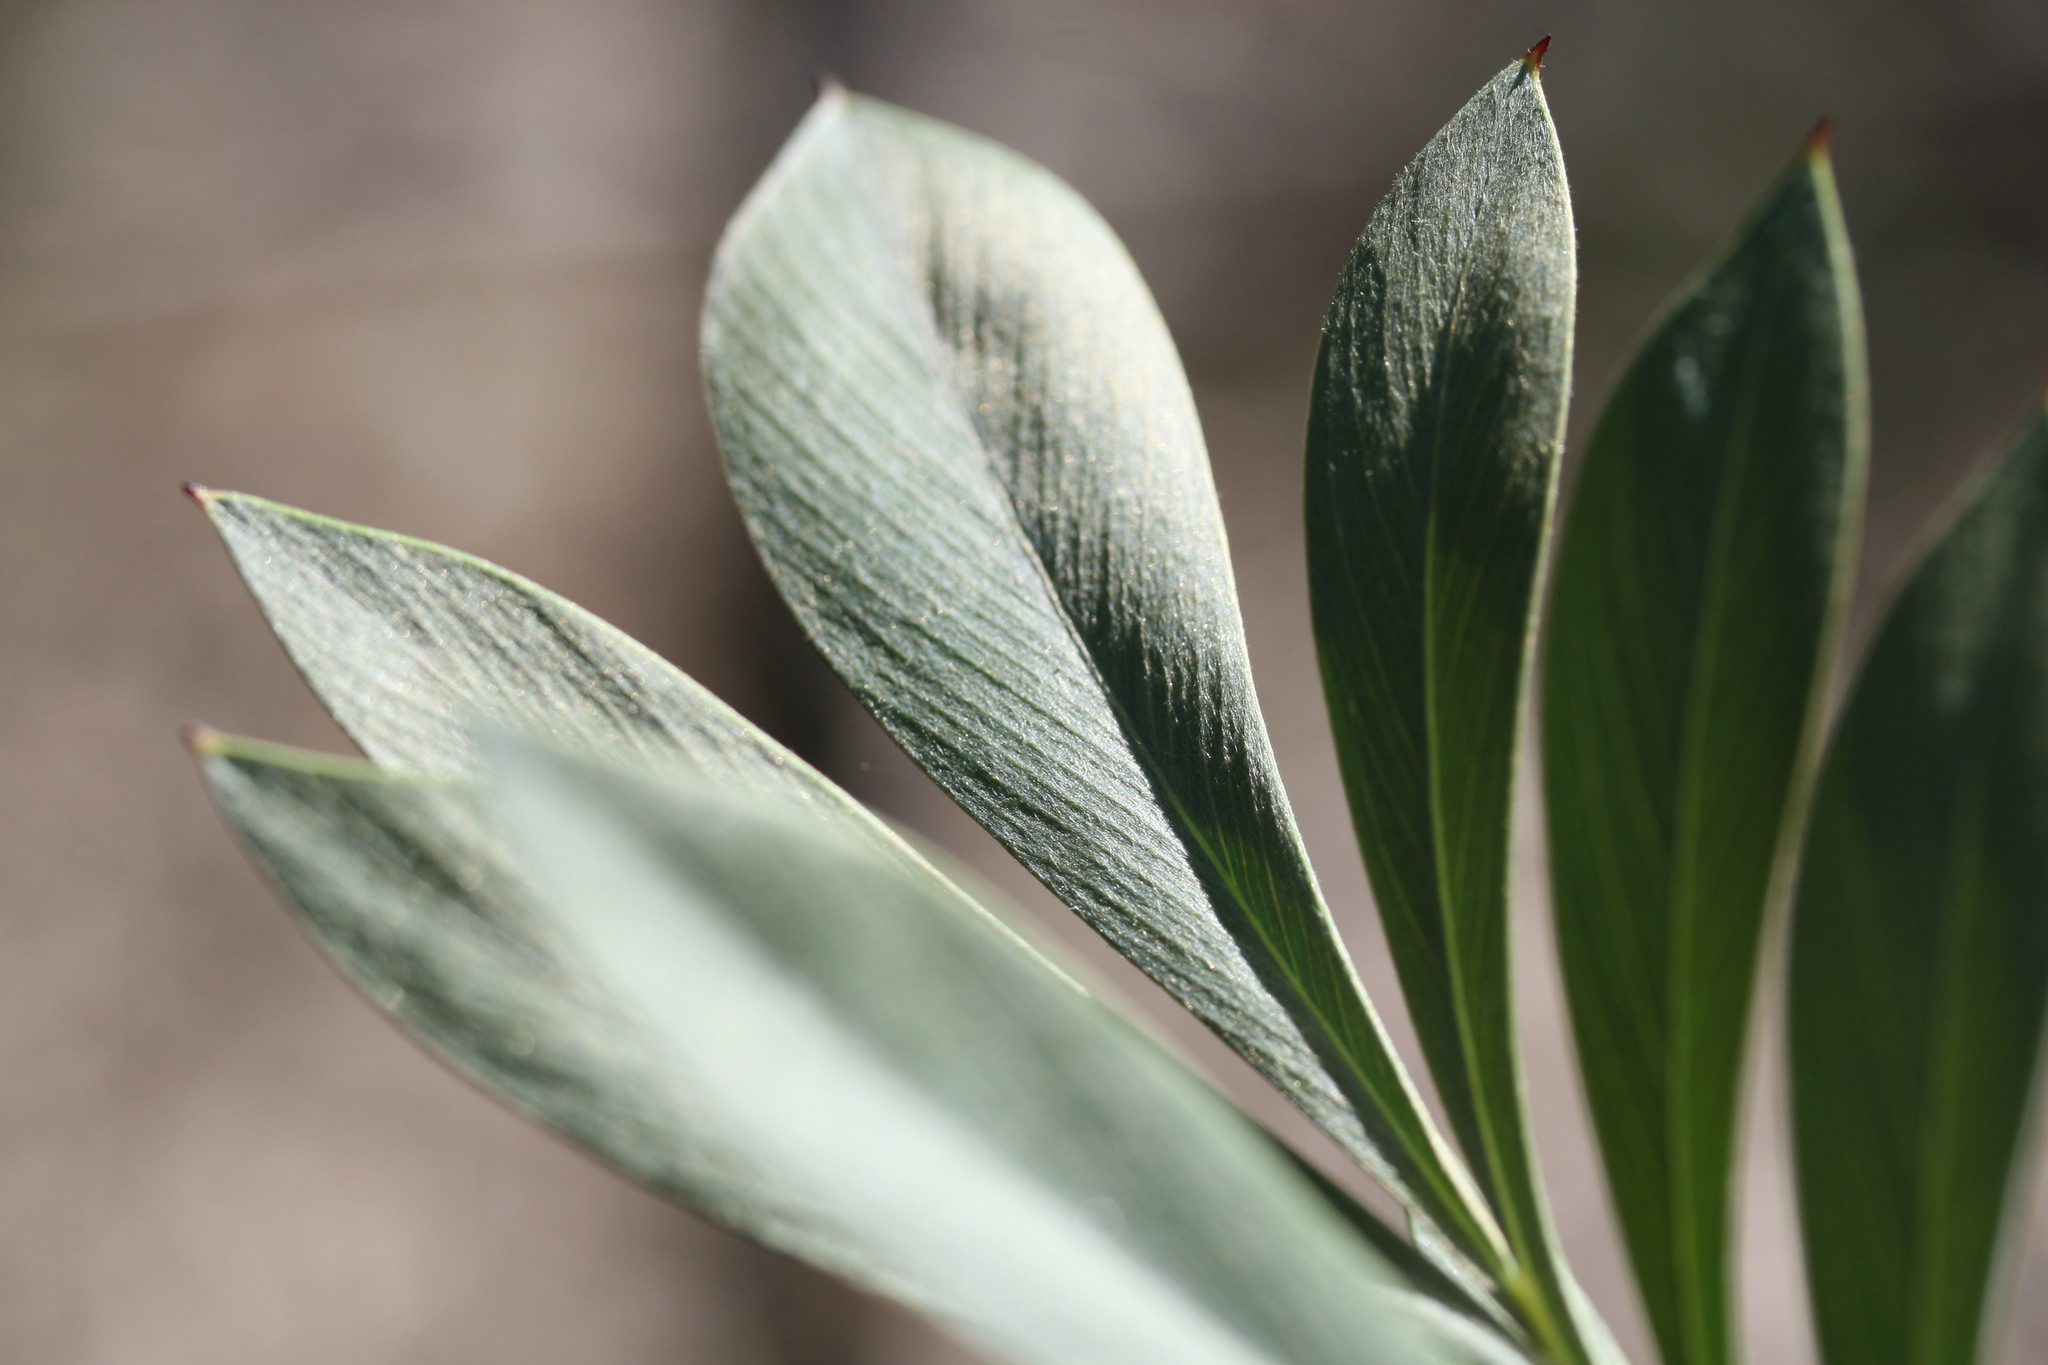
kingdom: Plantae
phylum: Tracheophyta
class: Magnoliopsida
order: Proteales
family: Proteaceae
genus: Grevillea
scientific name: Grevillea refracta
